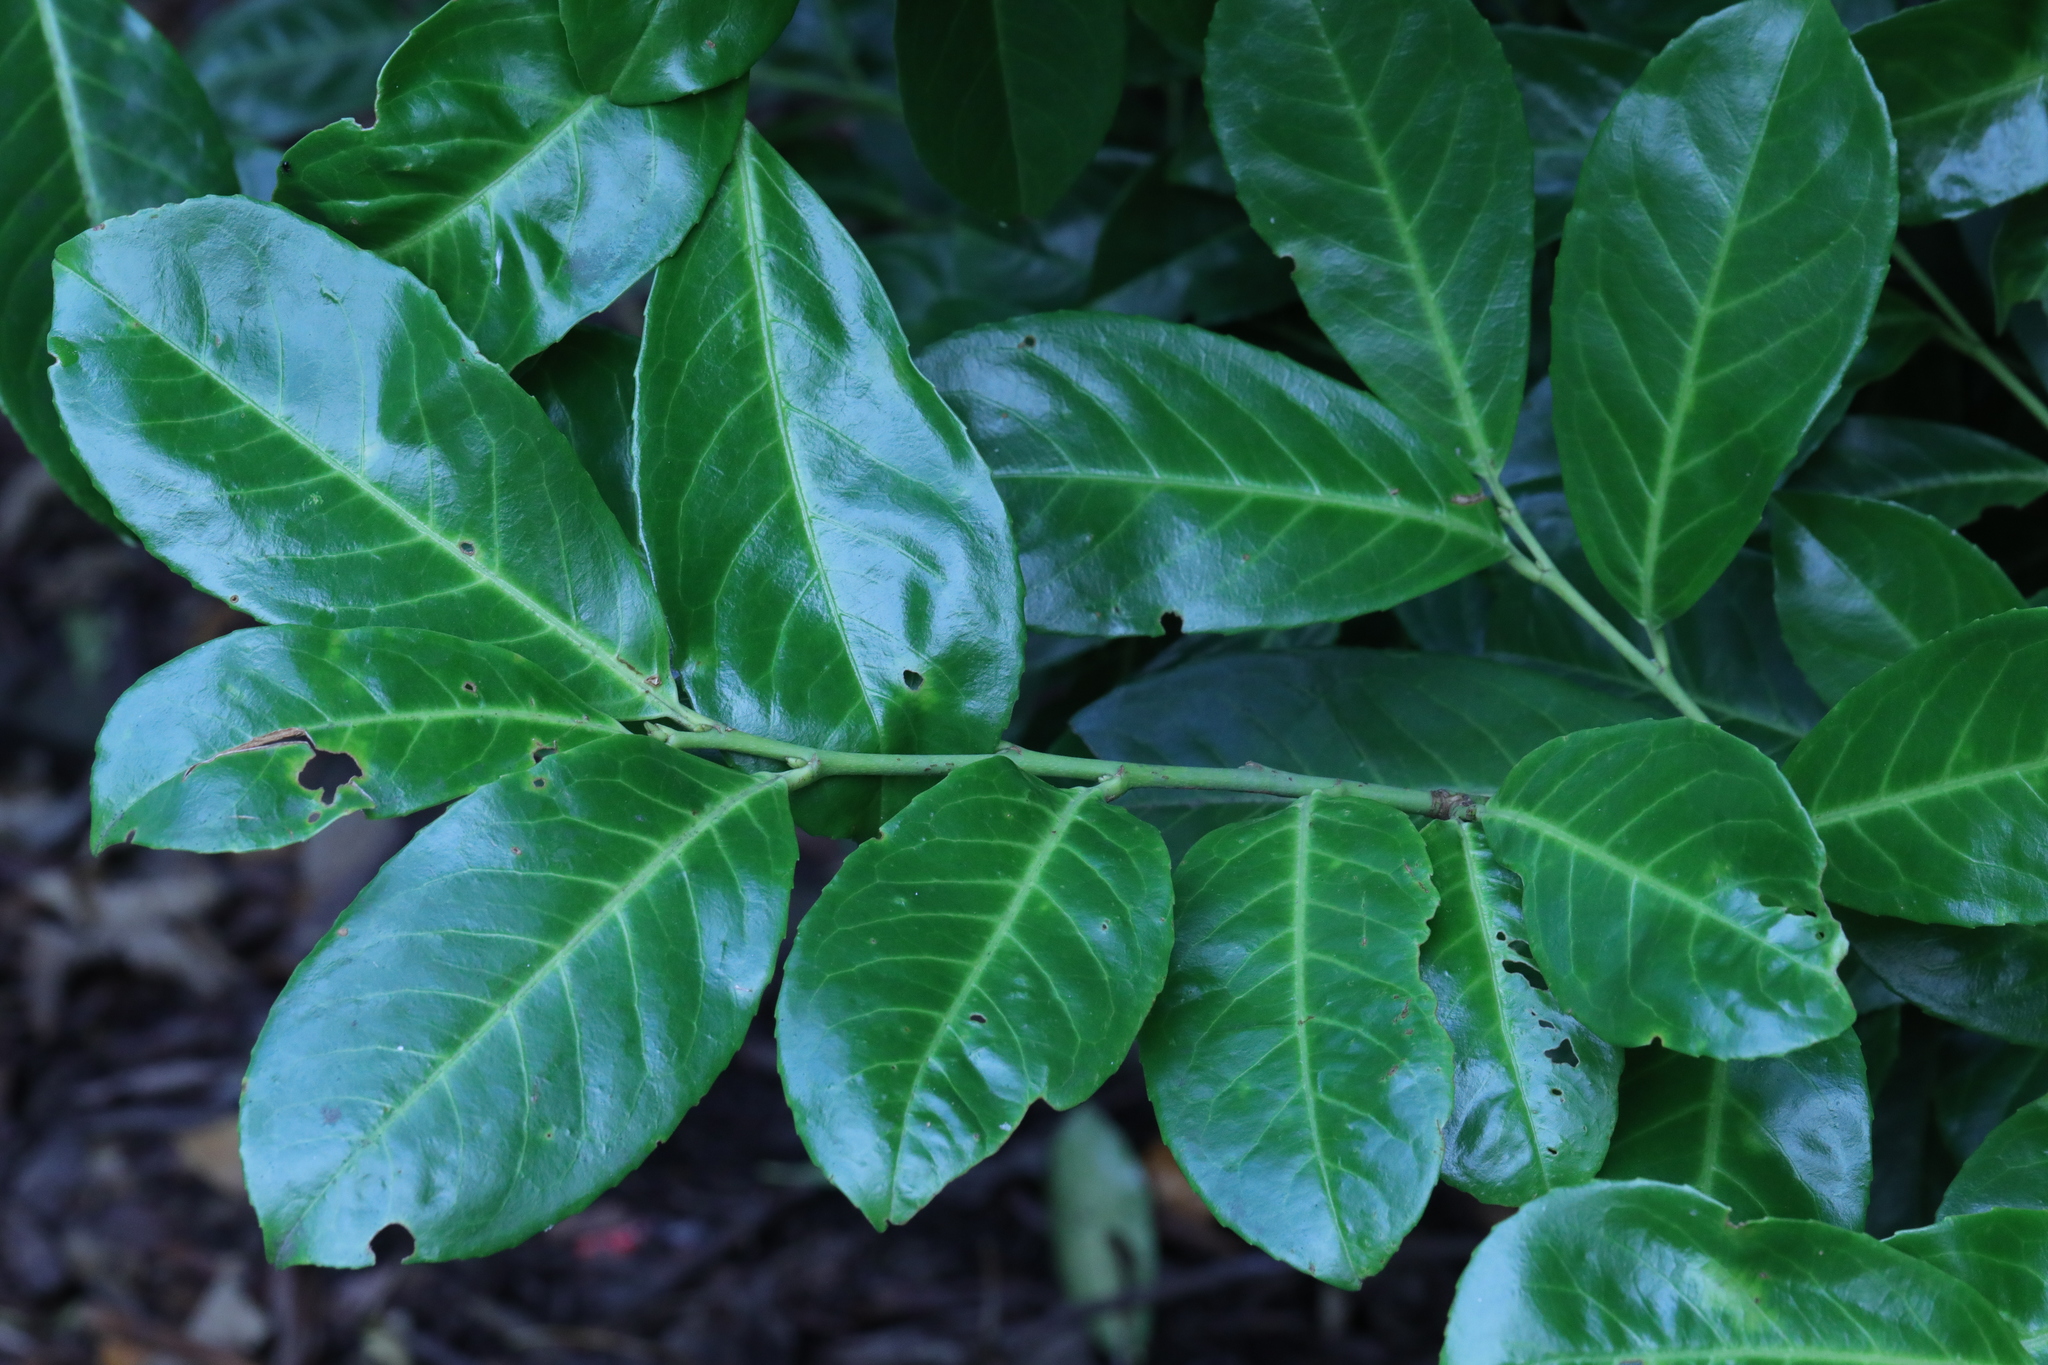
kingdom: Plantae
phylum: Tracheophyta
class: Magnoliopsida
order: Rosales
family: Rosaceae
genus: Prunus
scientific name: Prunus laurocerasus
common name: Cherry laurel
